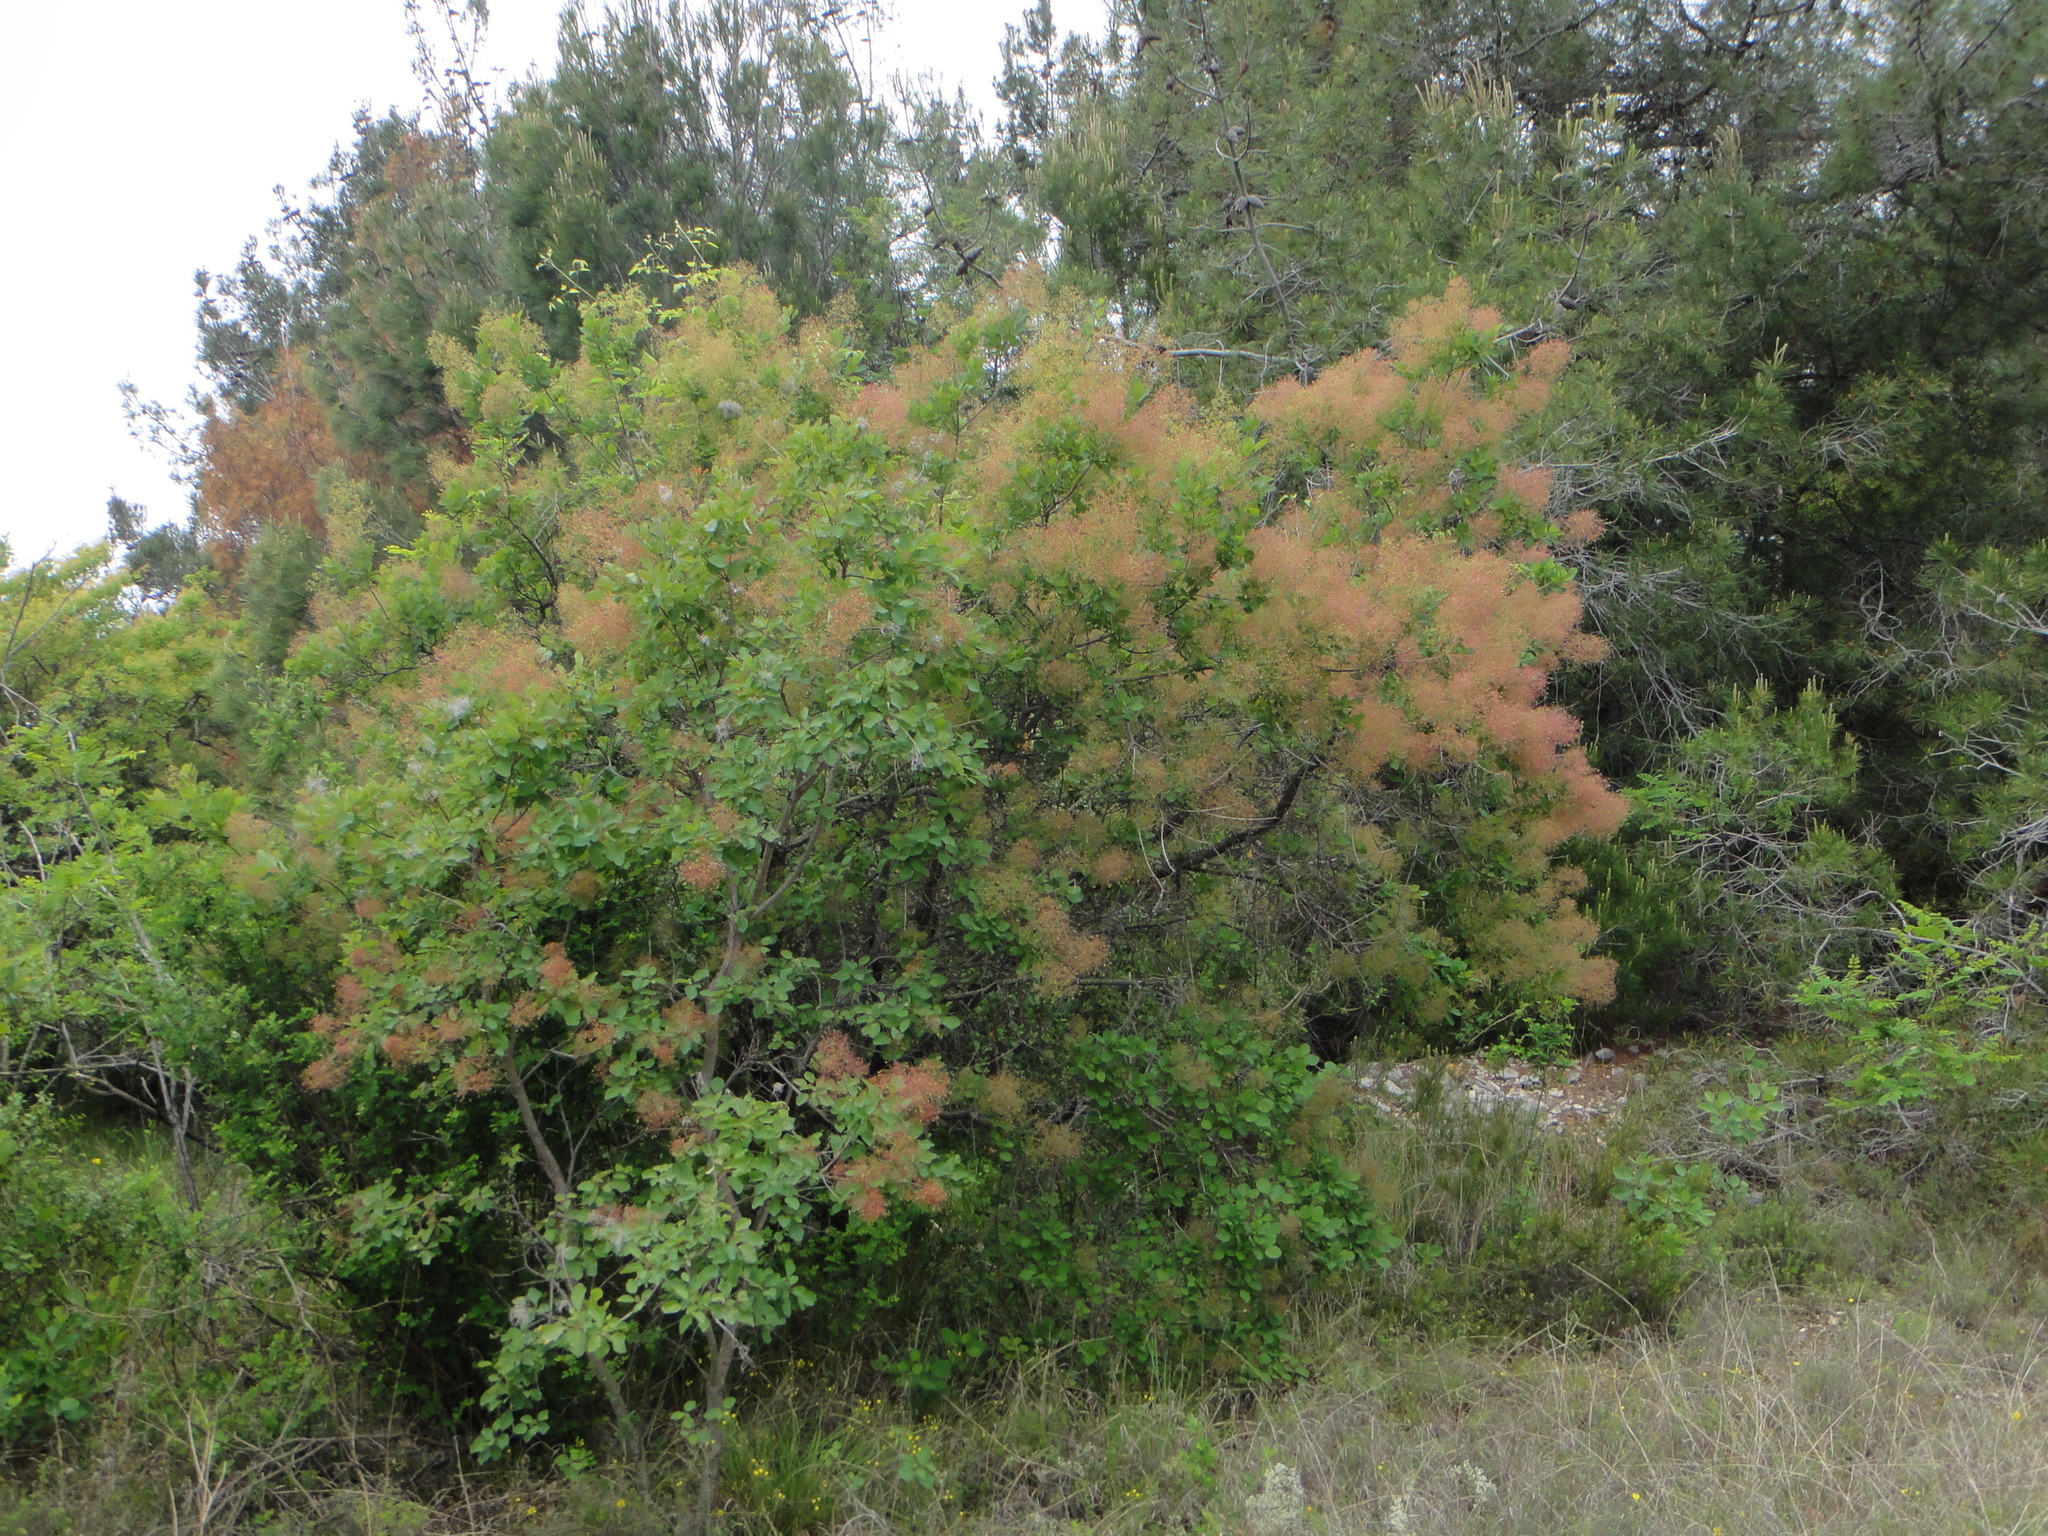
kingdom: Plantae
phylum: Tracheophyta
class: Magnoliopsida
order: Sapindales
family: Anacardiaceae
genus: Cotinus
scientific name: Cotinus coggygria
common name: Smoke-tree
